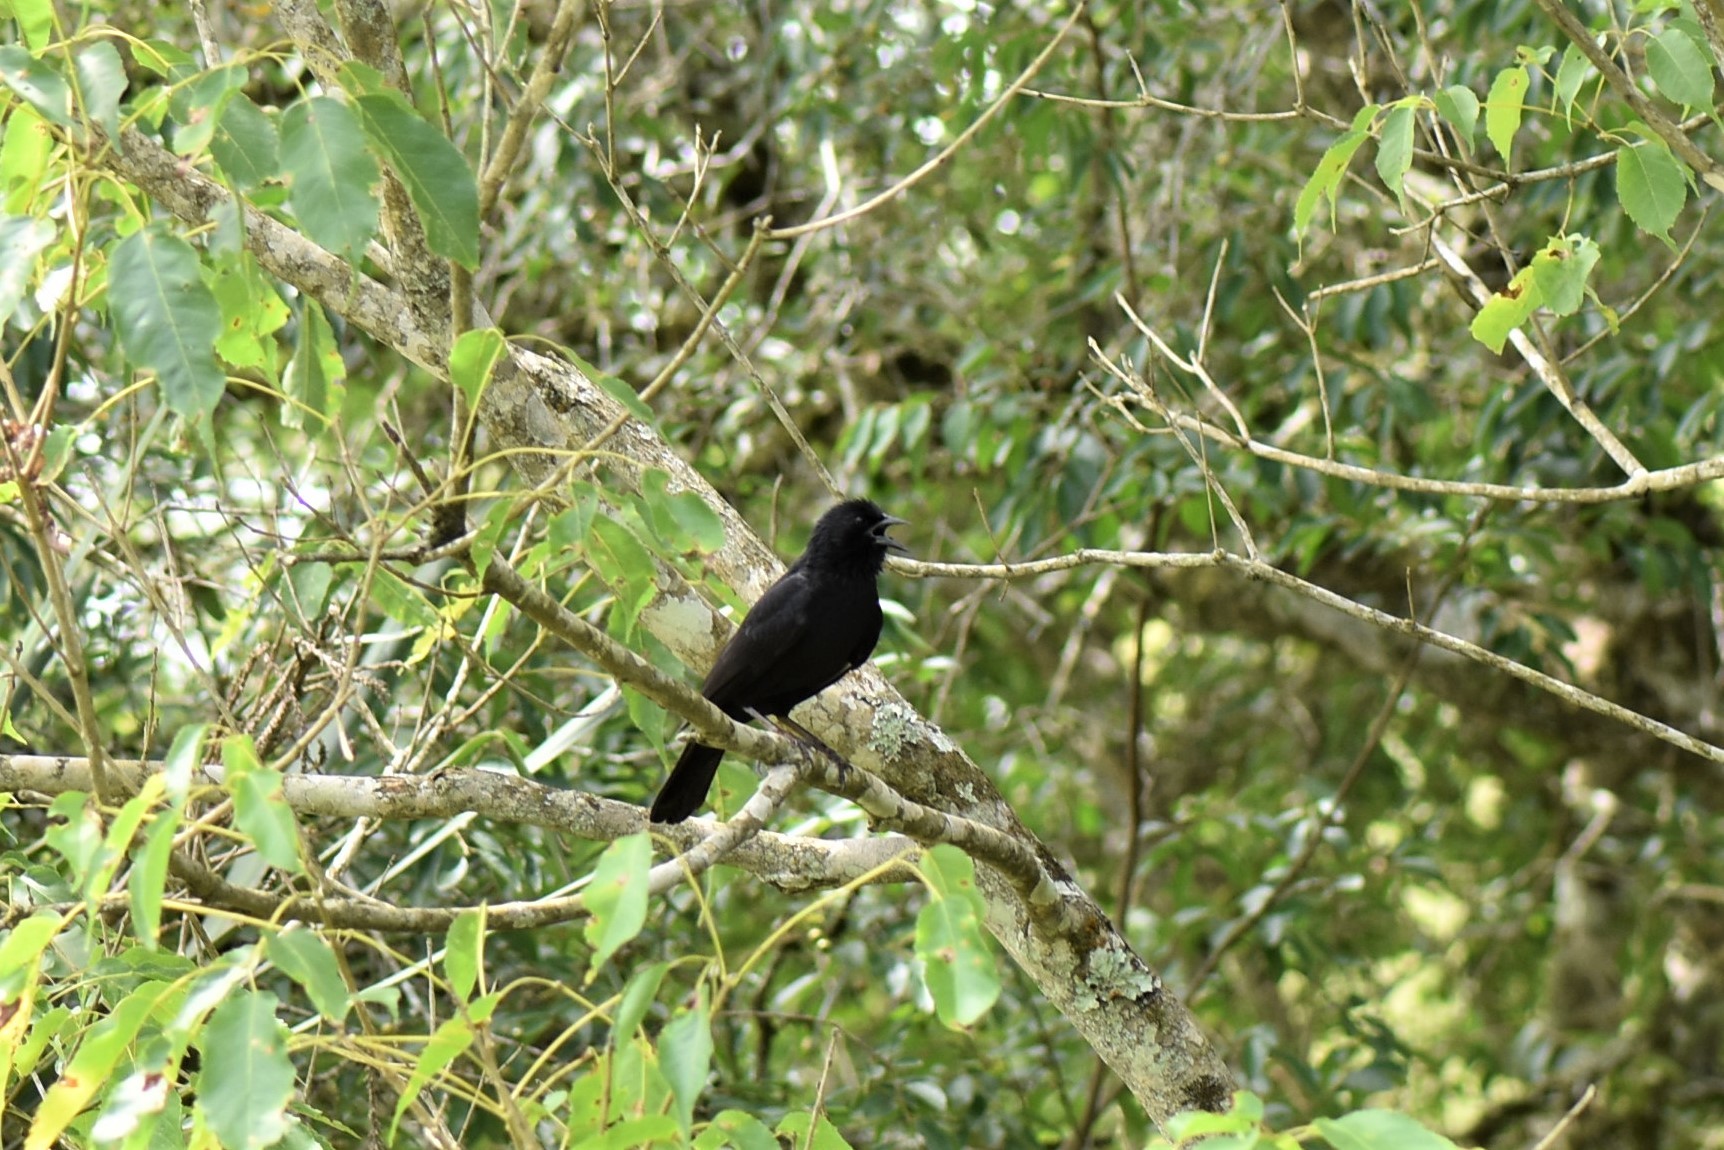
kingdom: Animalia
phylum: Chordata
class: Aves
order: Passeriformes
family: Icteridae
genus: Gnorimopsar
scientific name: Gnorimopsar chopi
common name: Chopi blackbird
